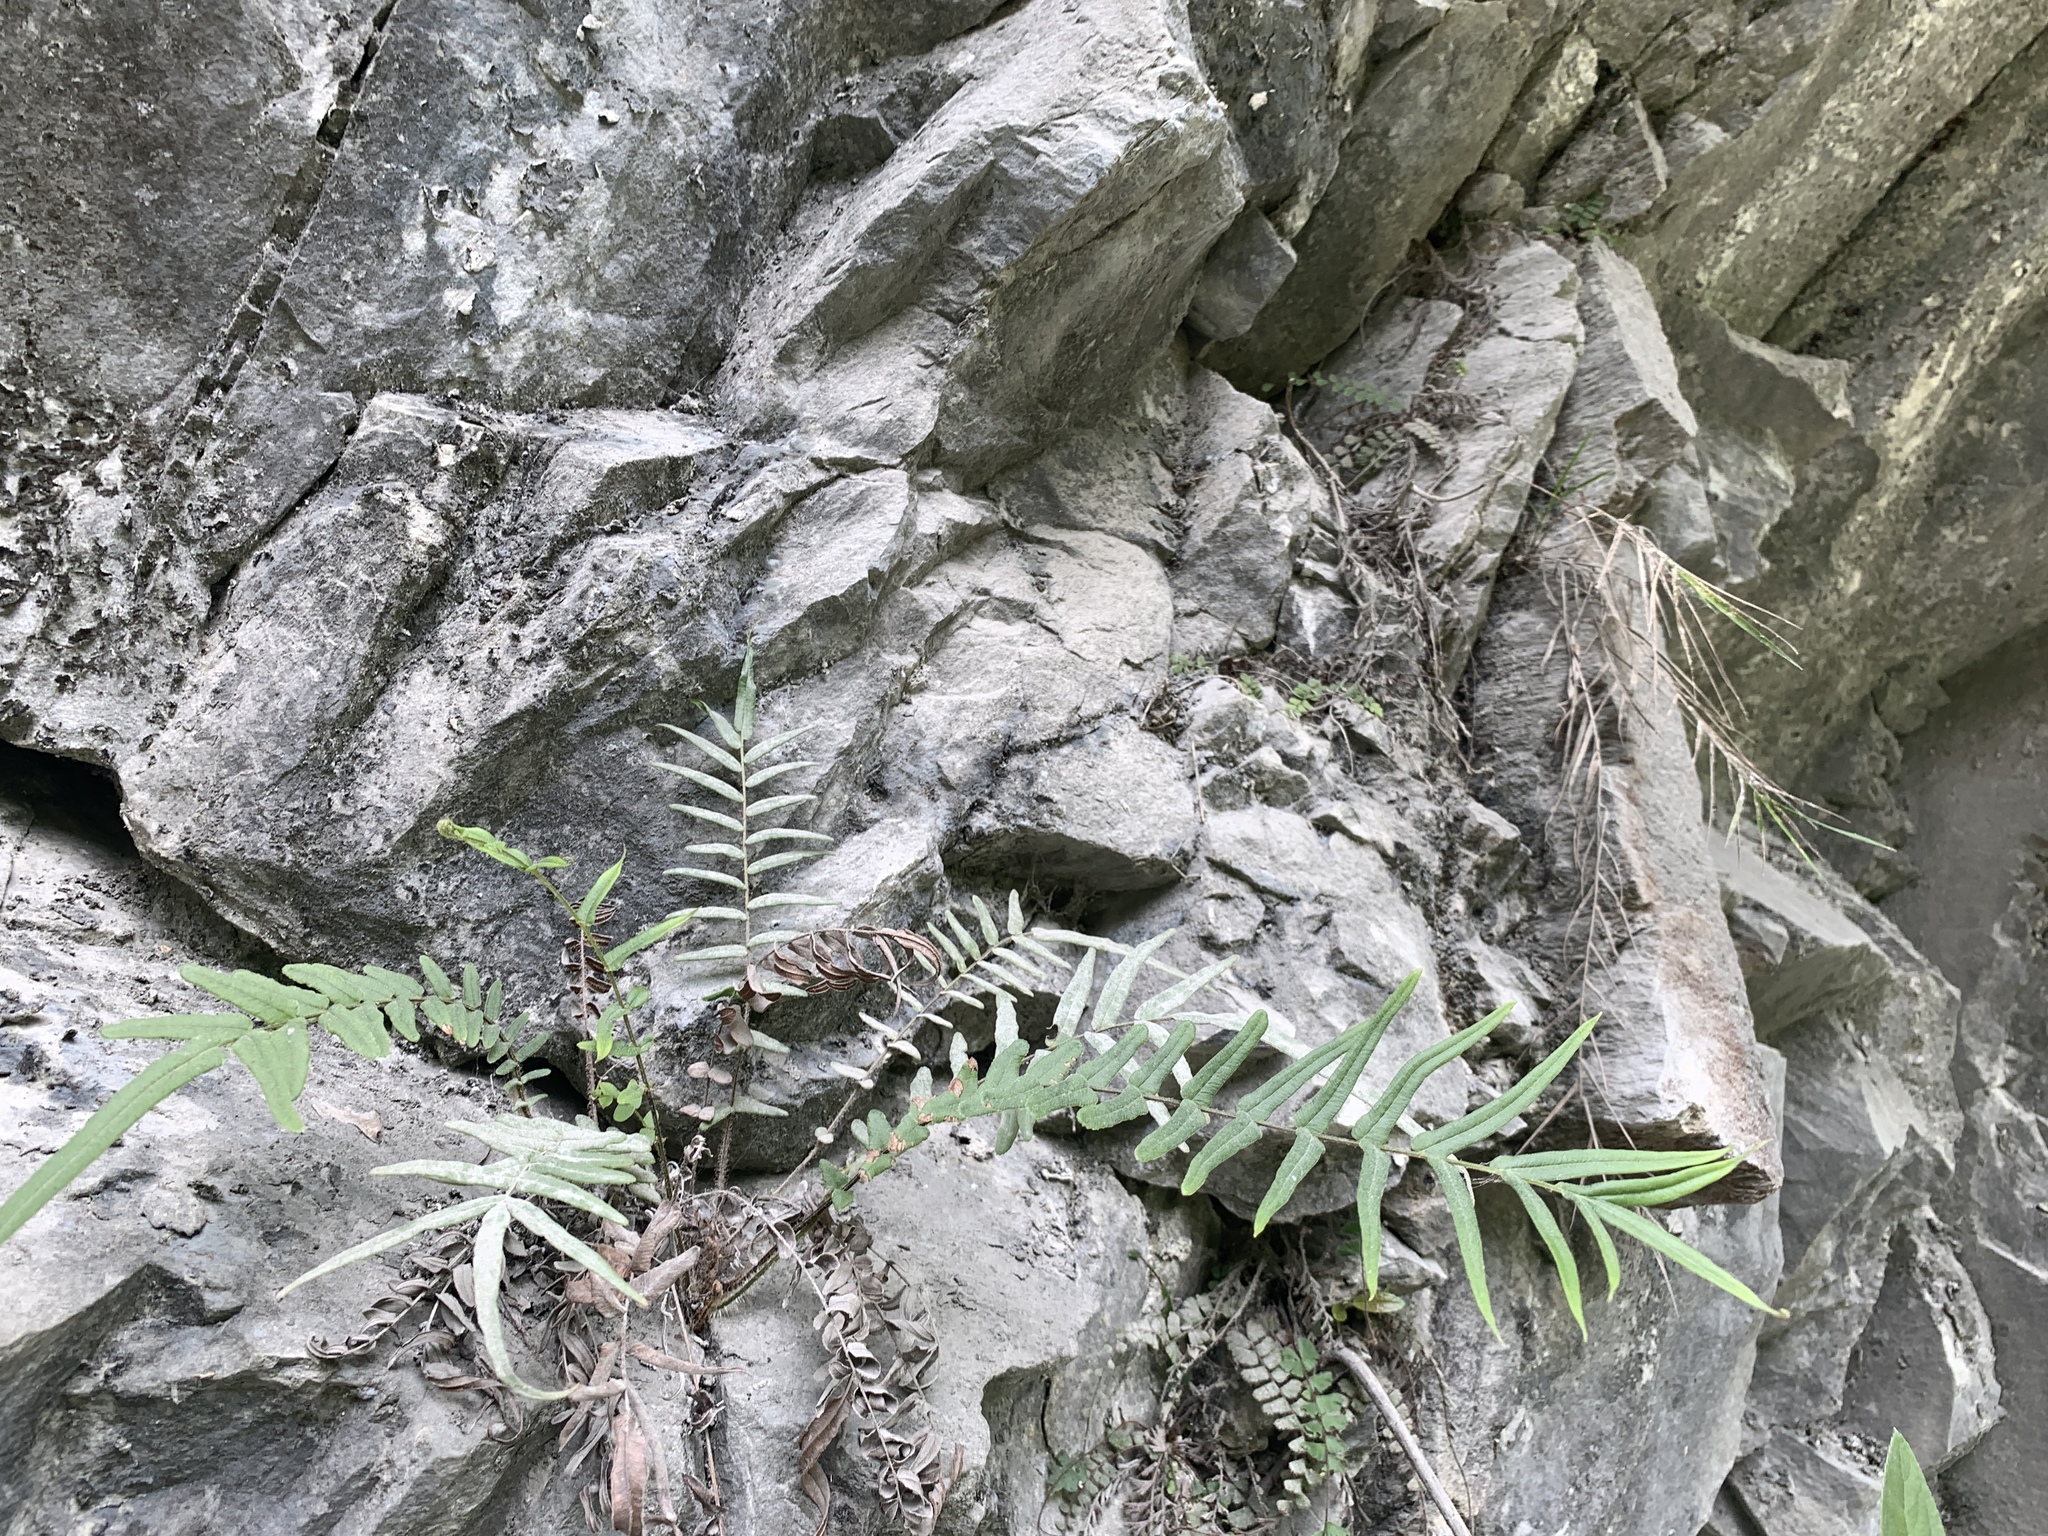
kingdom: Plantae
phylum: Tracheophyta
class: Polypodiopsida
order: Polypodiales
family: Pteridaceae
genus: Pteris
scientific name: Pteris vittata
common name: Ladder brake
